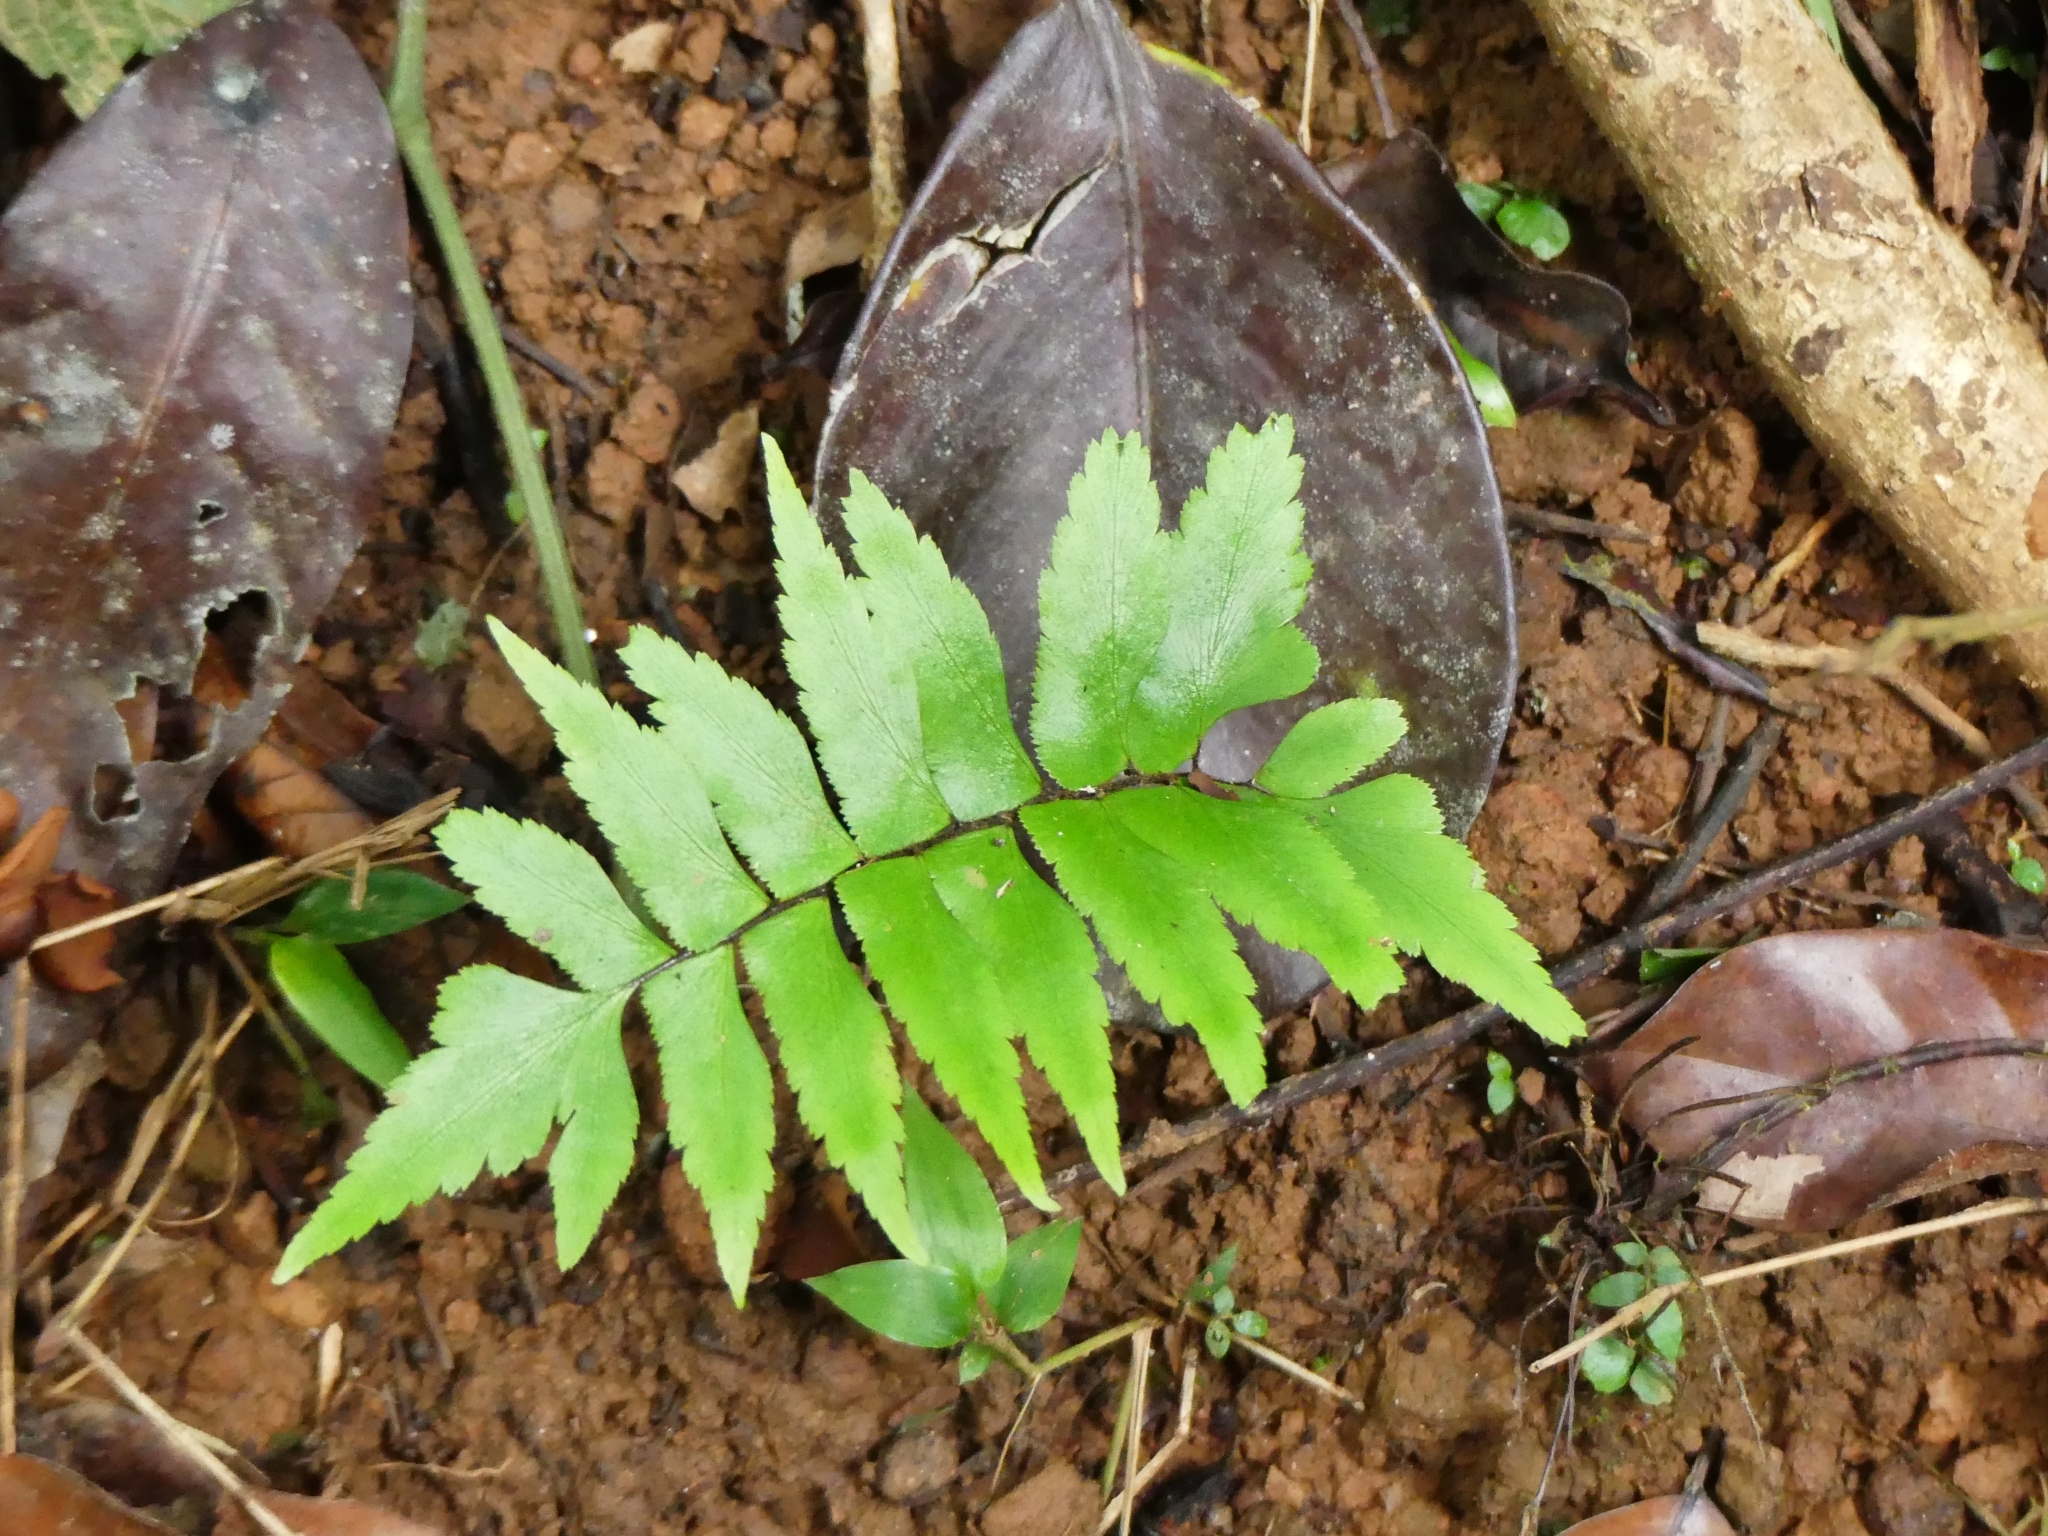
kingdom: Plantae
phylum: Tracheophyta
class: Polypodiopsida
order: Polypodiales
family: Pteridaceae
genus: Adiantum
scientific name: Adiantum argutum
